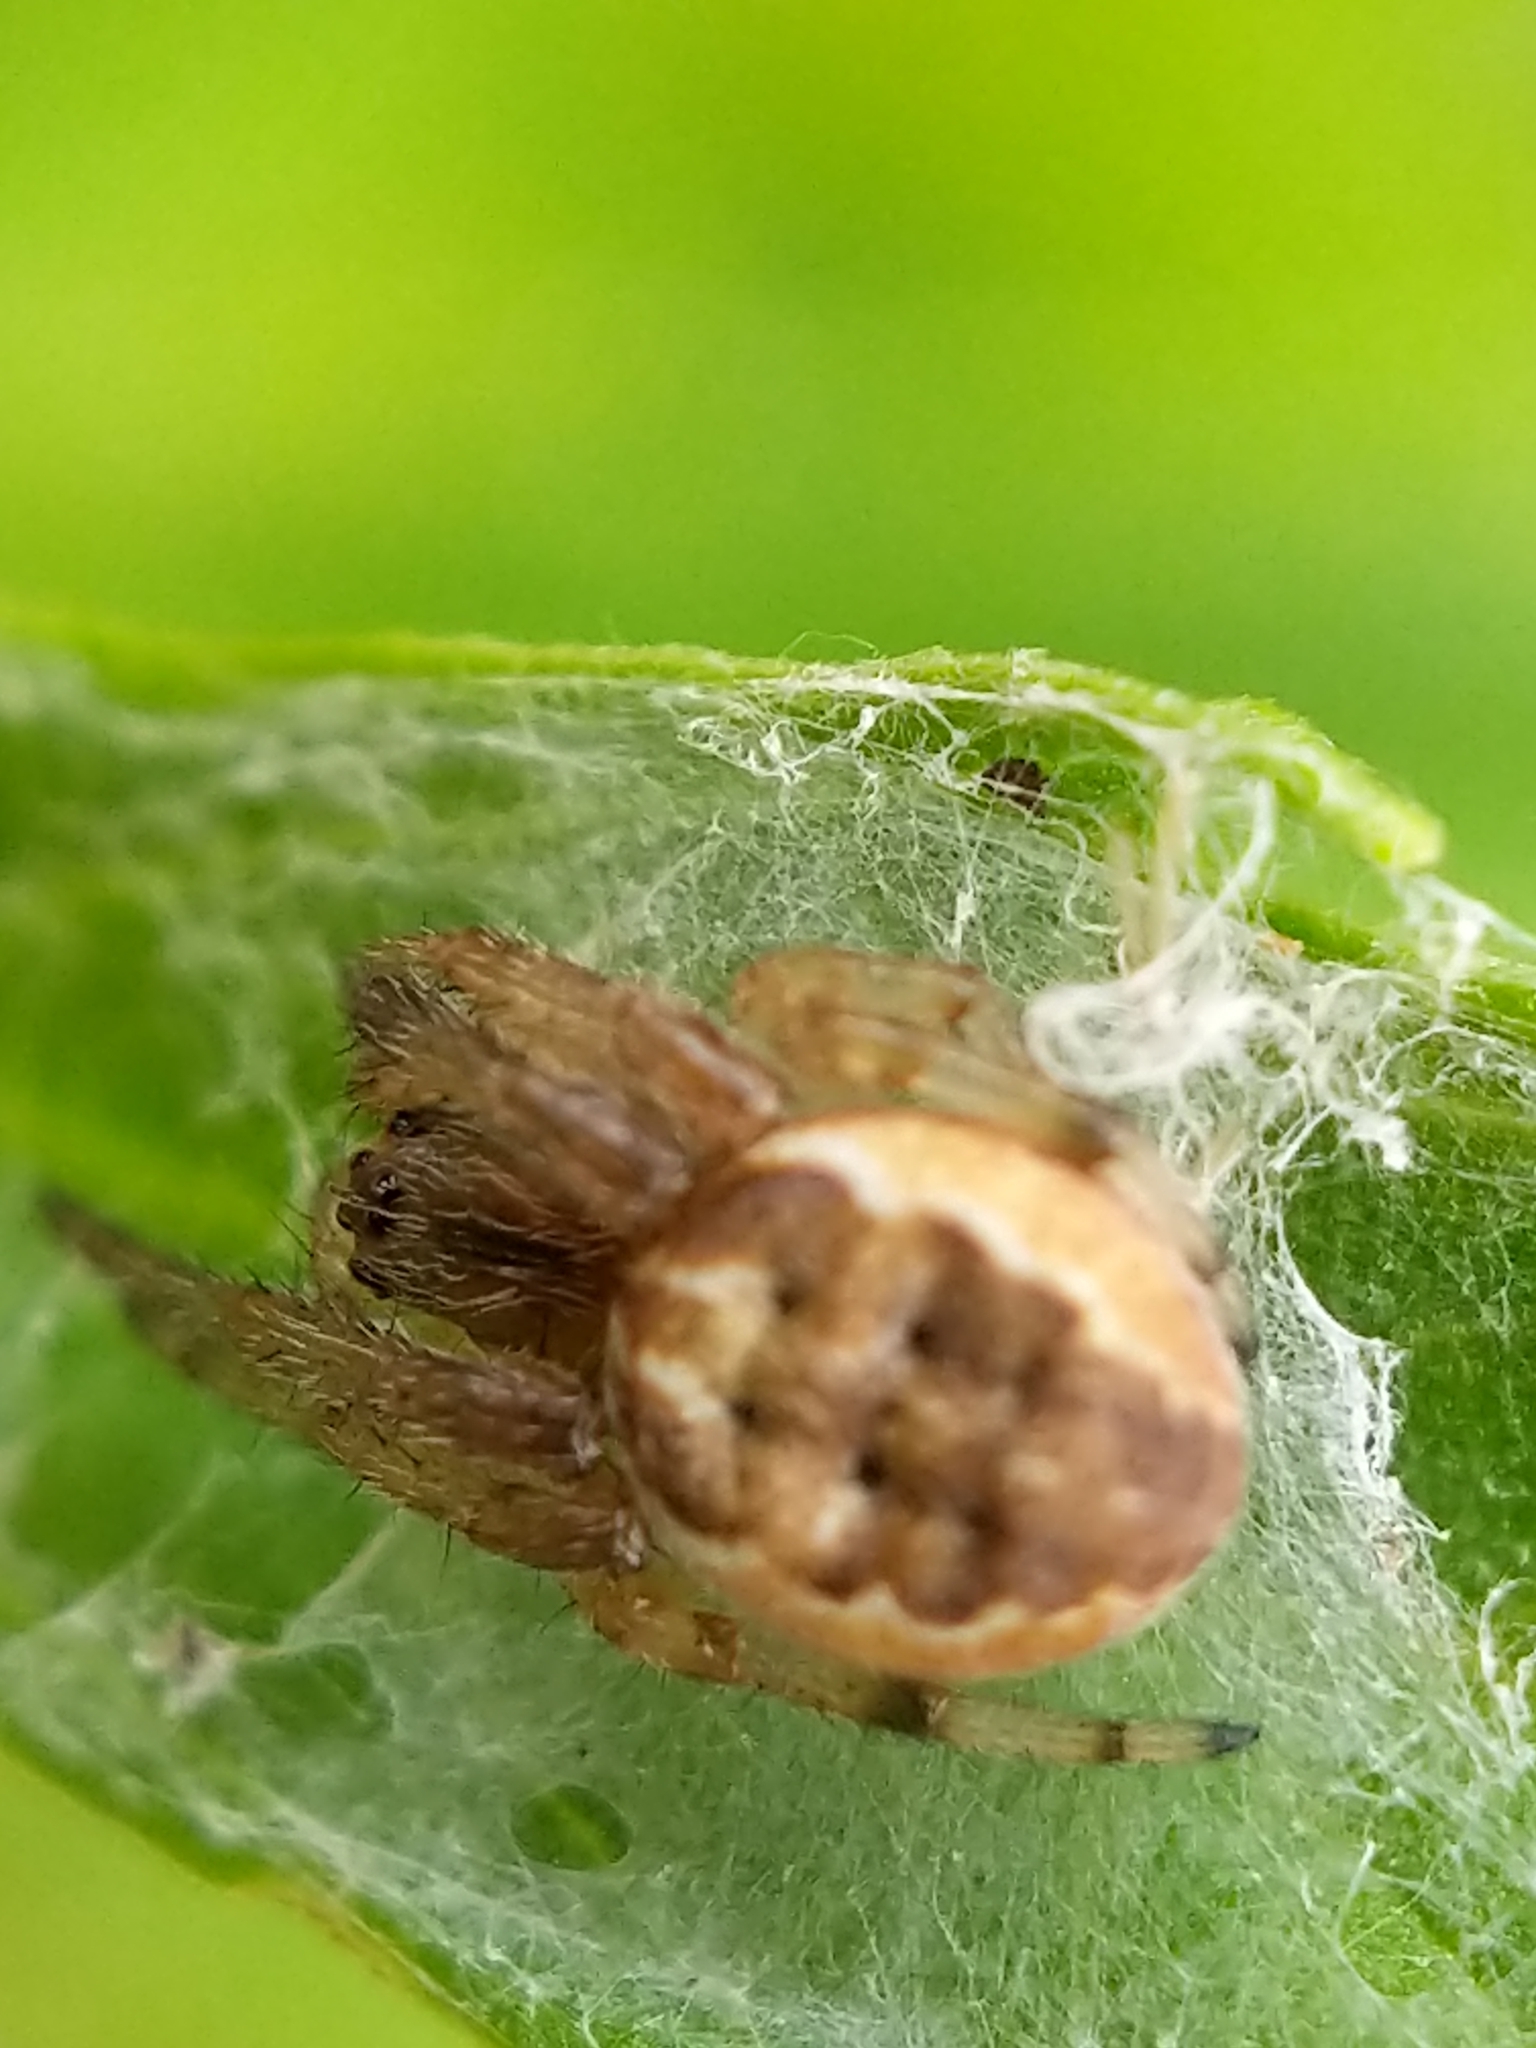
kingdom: Animalia
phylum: Arthropoda
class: Arachnida
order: Araneae
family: Araneidae
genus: Larinioides
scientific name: Larinioides cornutus
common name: Furrow orbweaver
